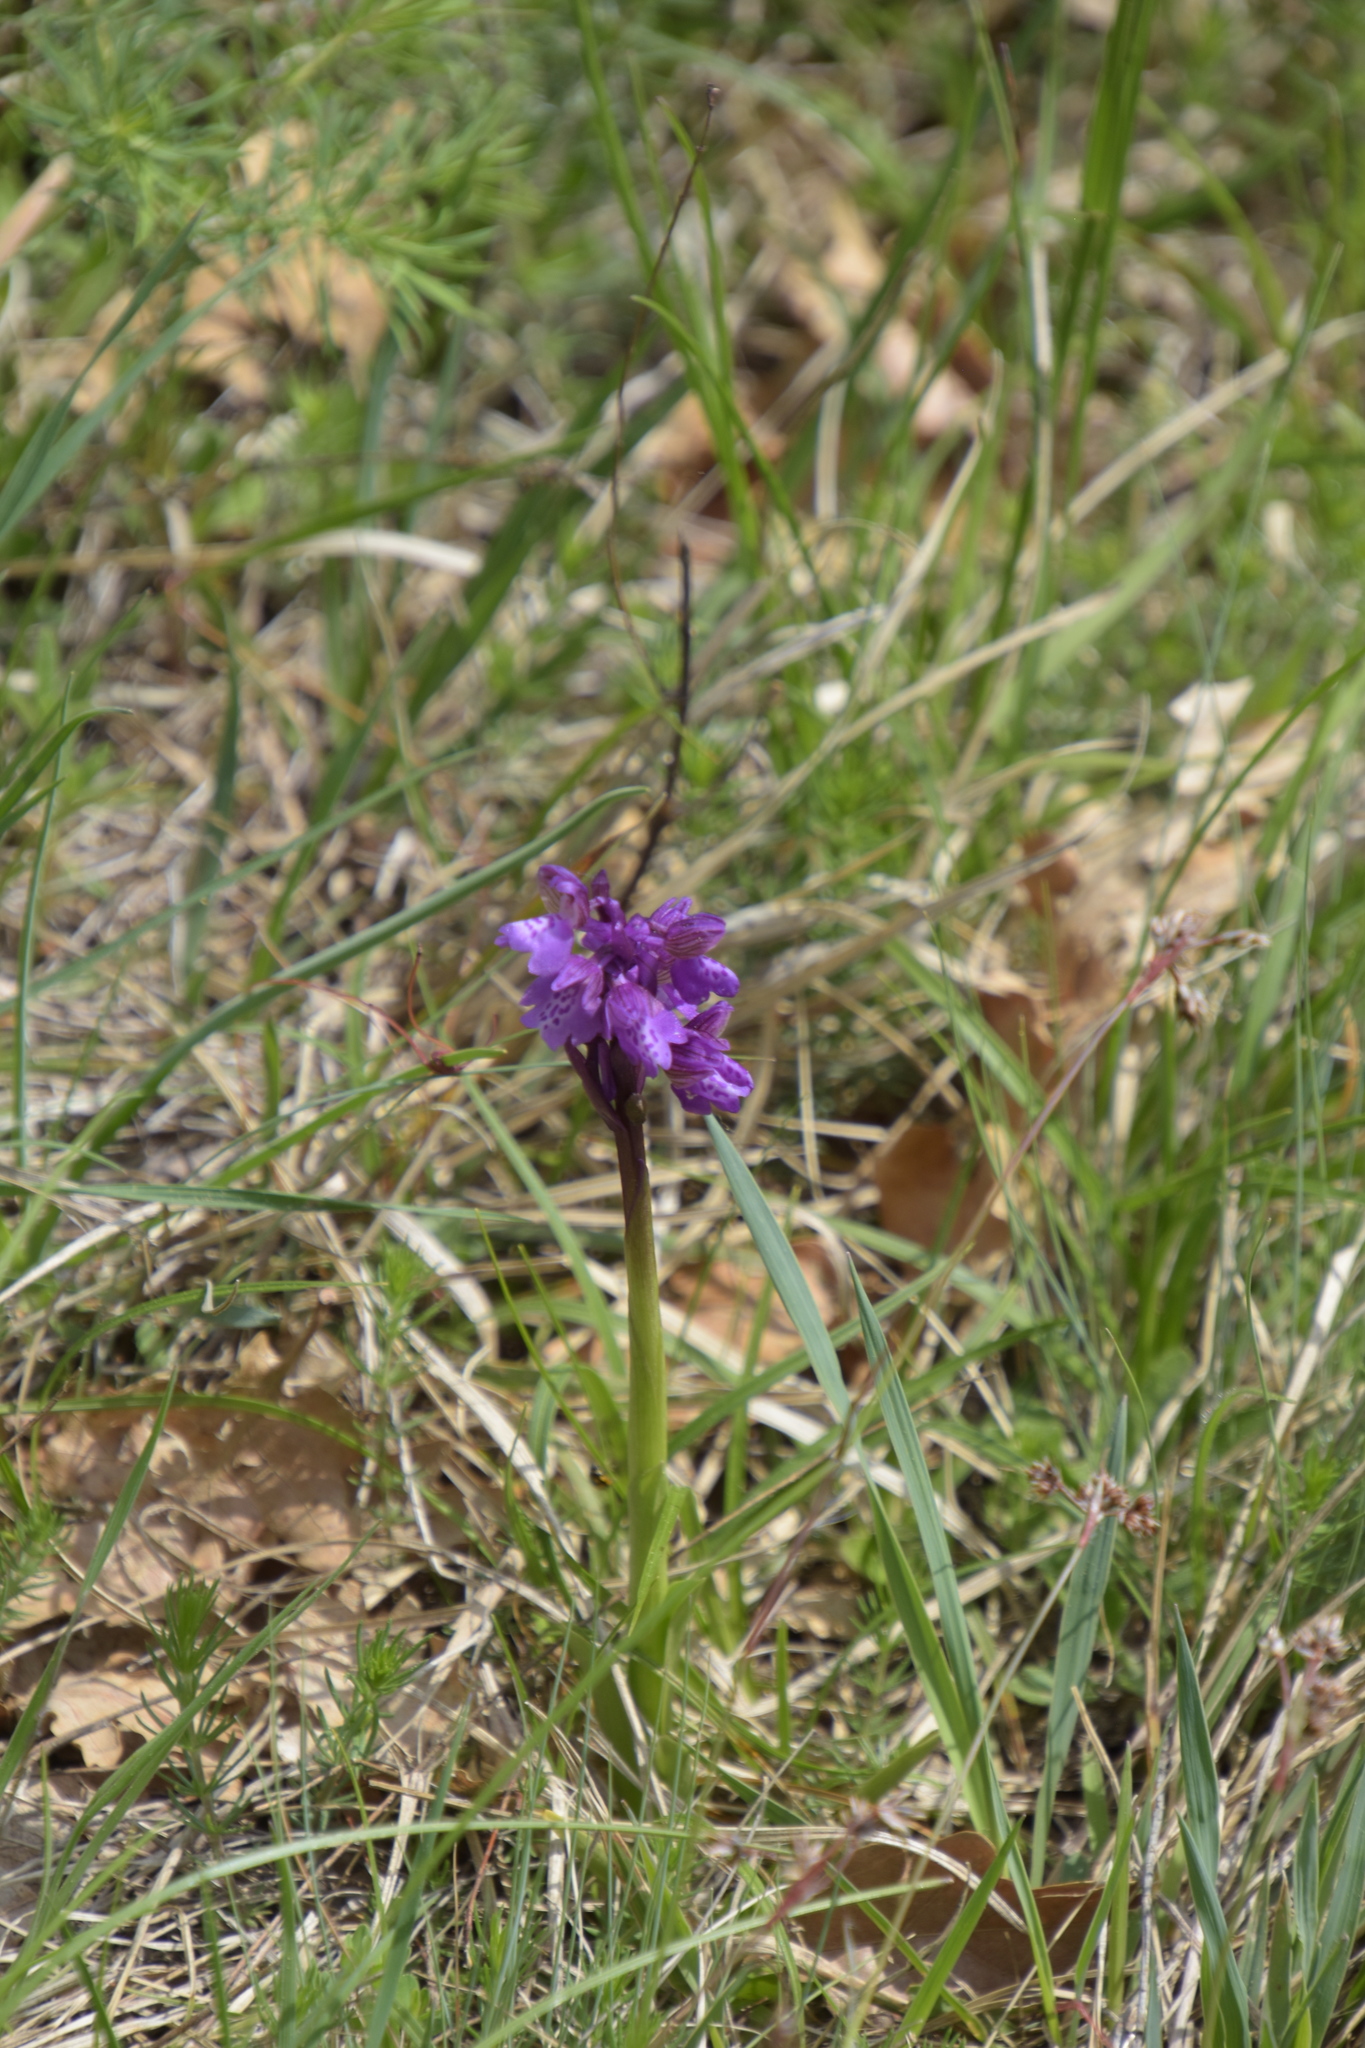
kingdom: Plantae
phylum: Tracheophyta
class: Liliopsida
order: Asparagales
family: Orchidaceae
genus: Anacamptis
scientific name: Anacamptis morio
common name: Green-winged orchid
